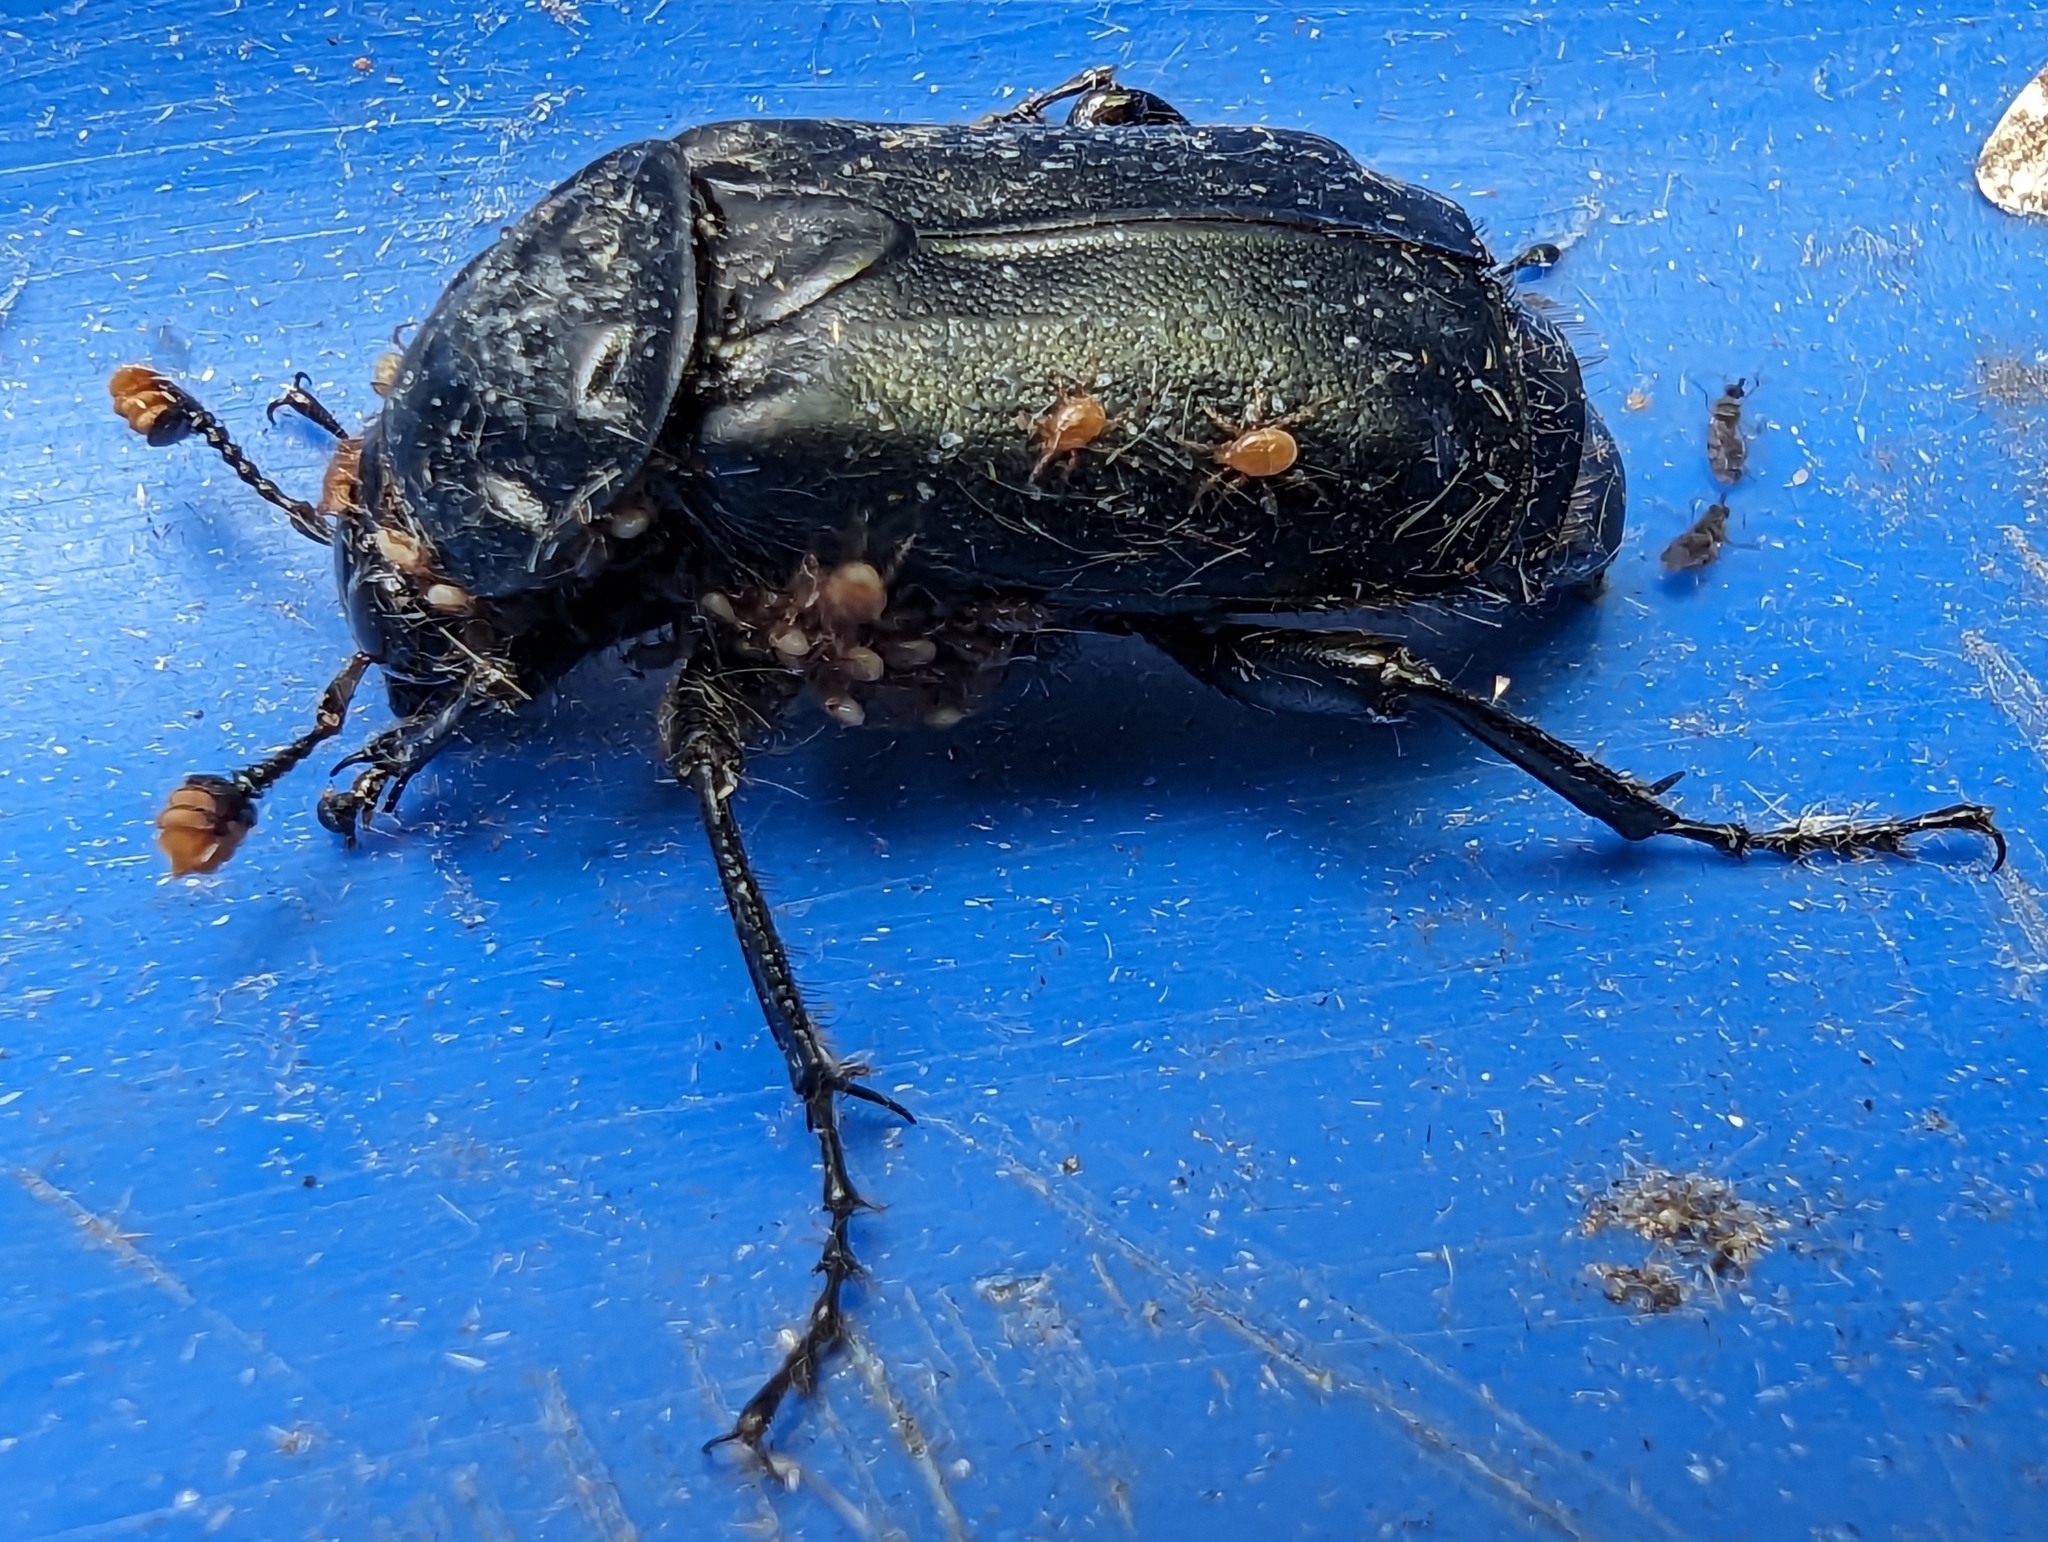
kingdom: Animalia
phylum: Arthropoda
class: Insecta
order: Coleoptera
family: Staphylinidae
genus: Nicrophorus
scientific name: Nicrophorus humator
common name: Black sexton beetle
